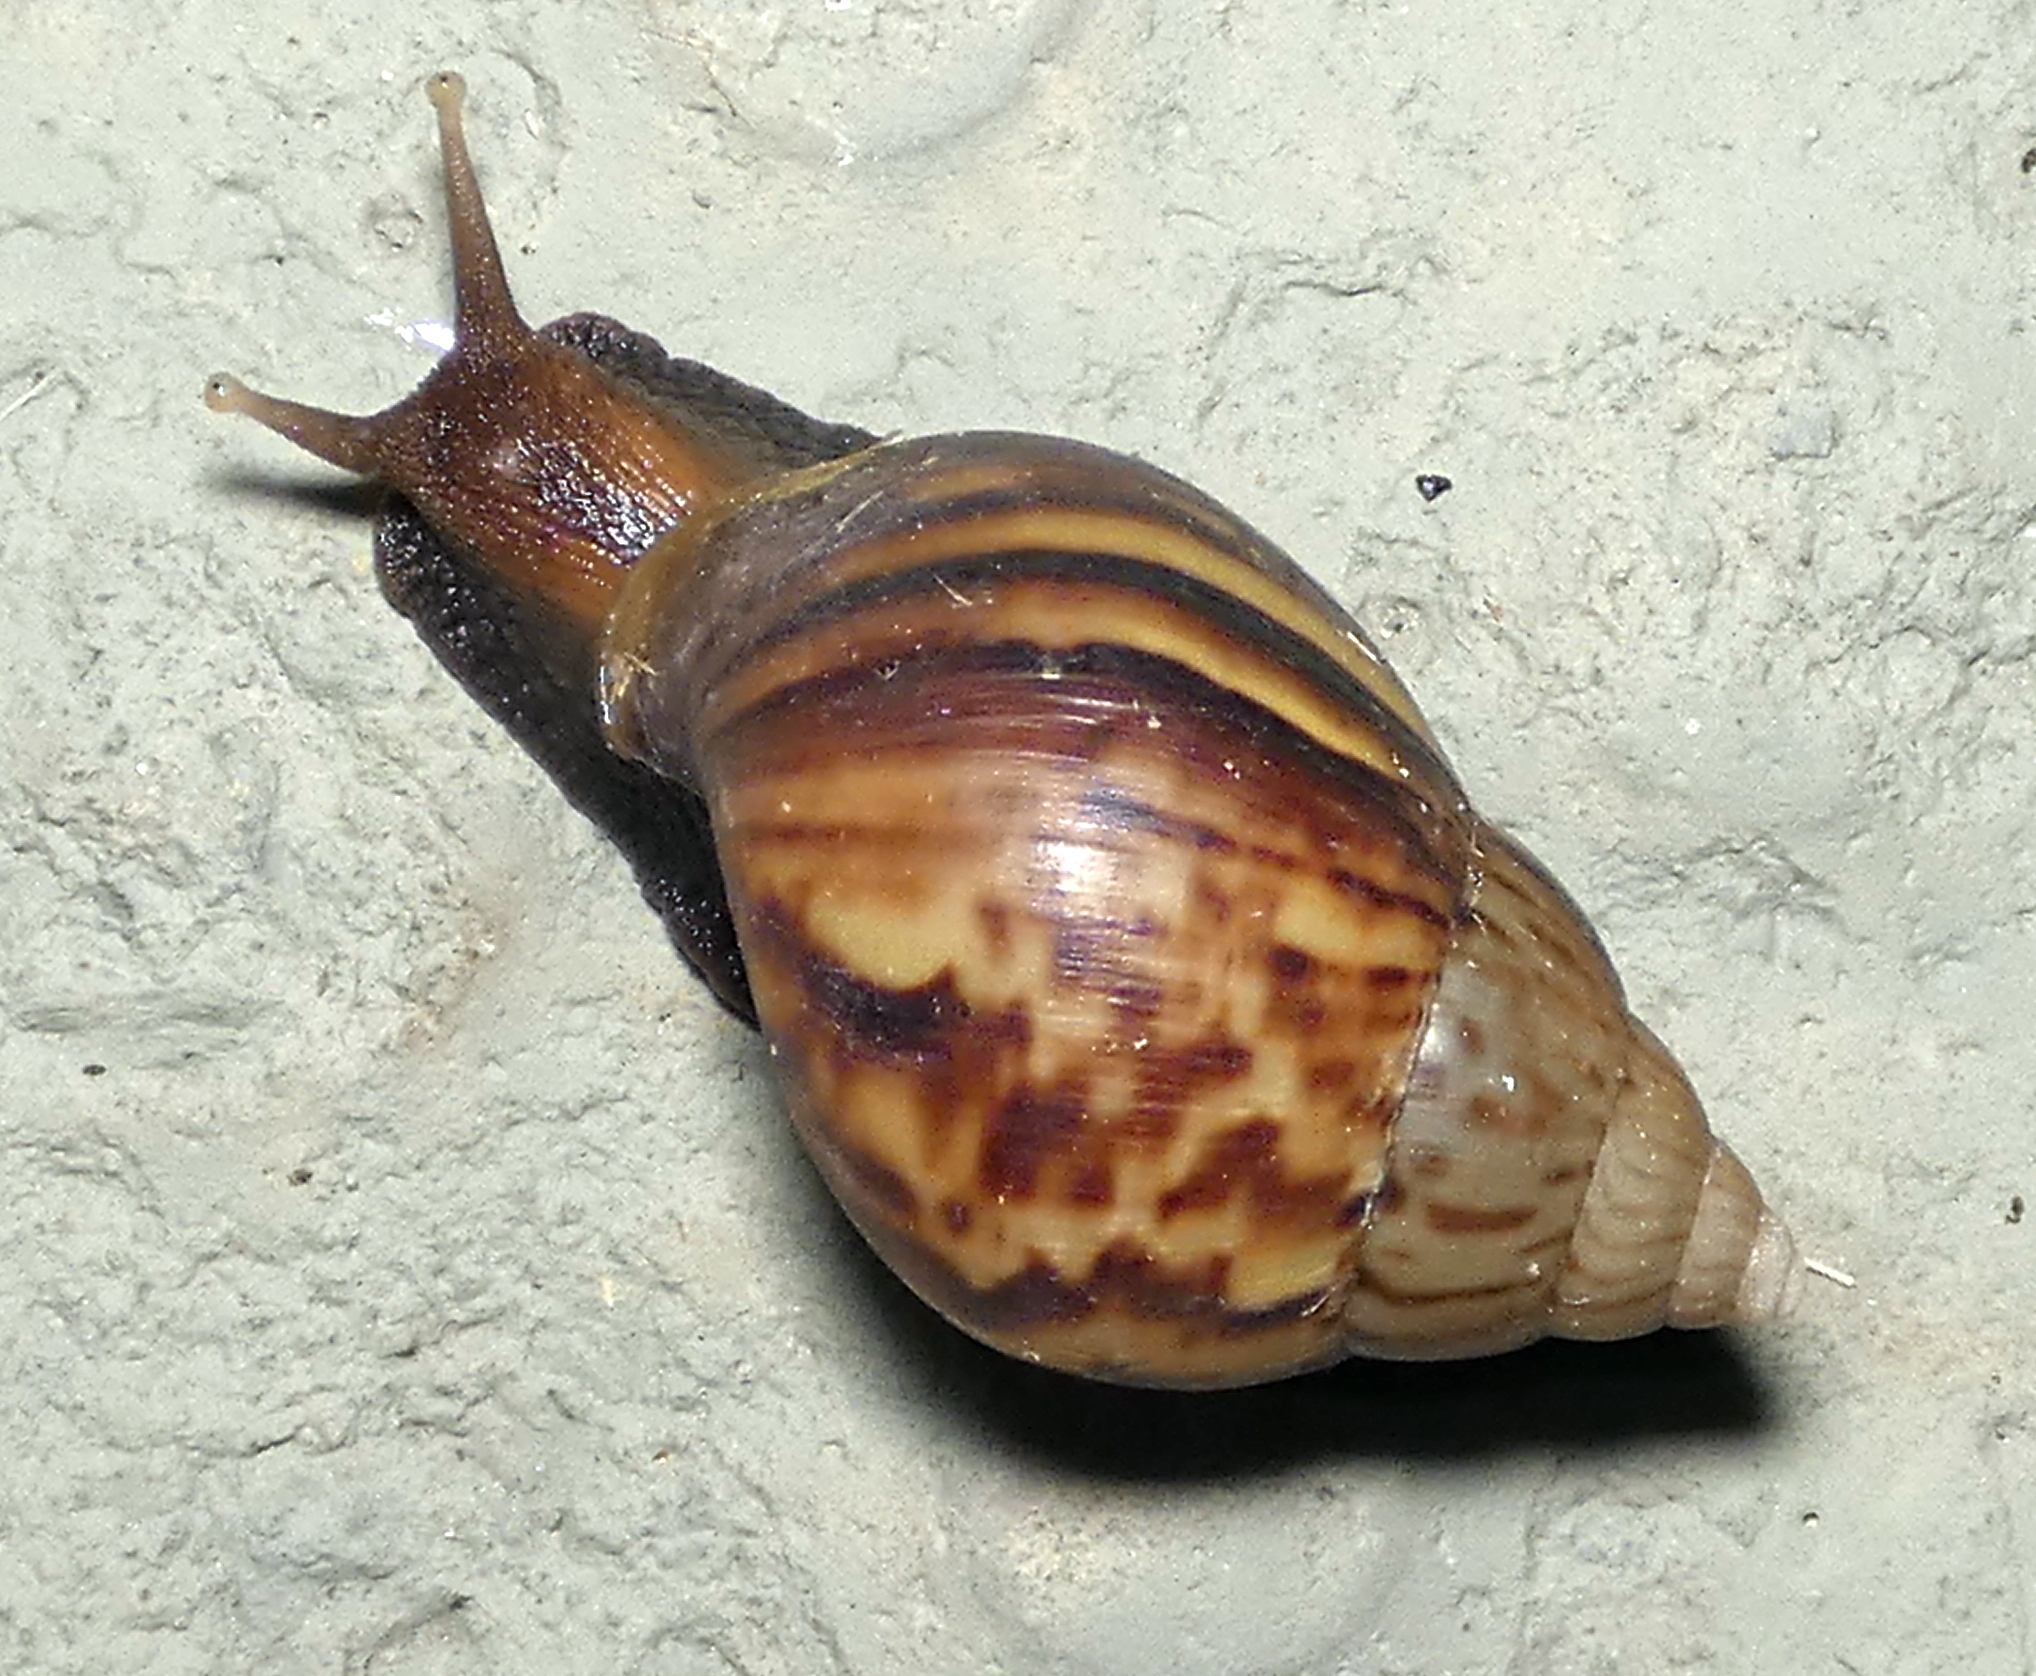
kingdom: Animalia
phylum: Mollusca
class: Gastropoda
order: Stylommatophora
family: Achatinidae
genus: Lissachatina
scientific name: Lissachatina fulica
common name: Giant african snail
